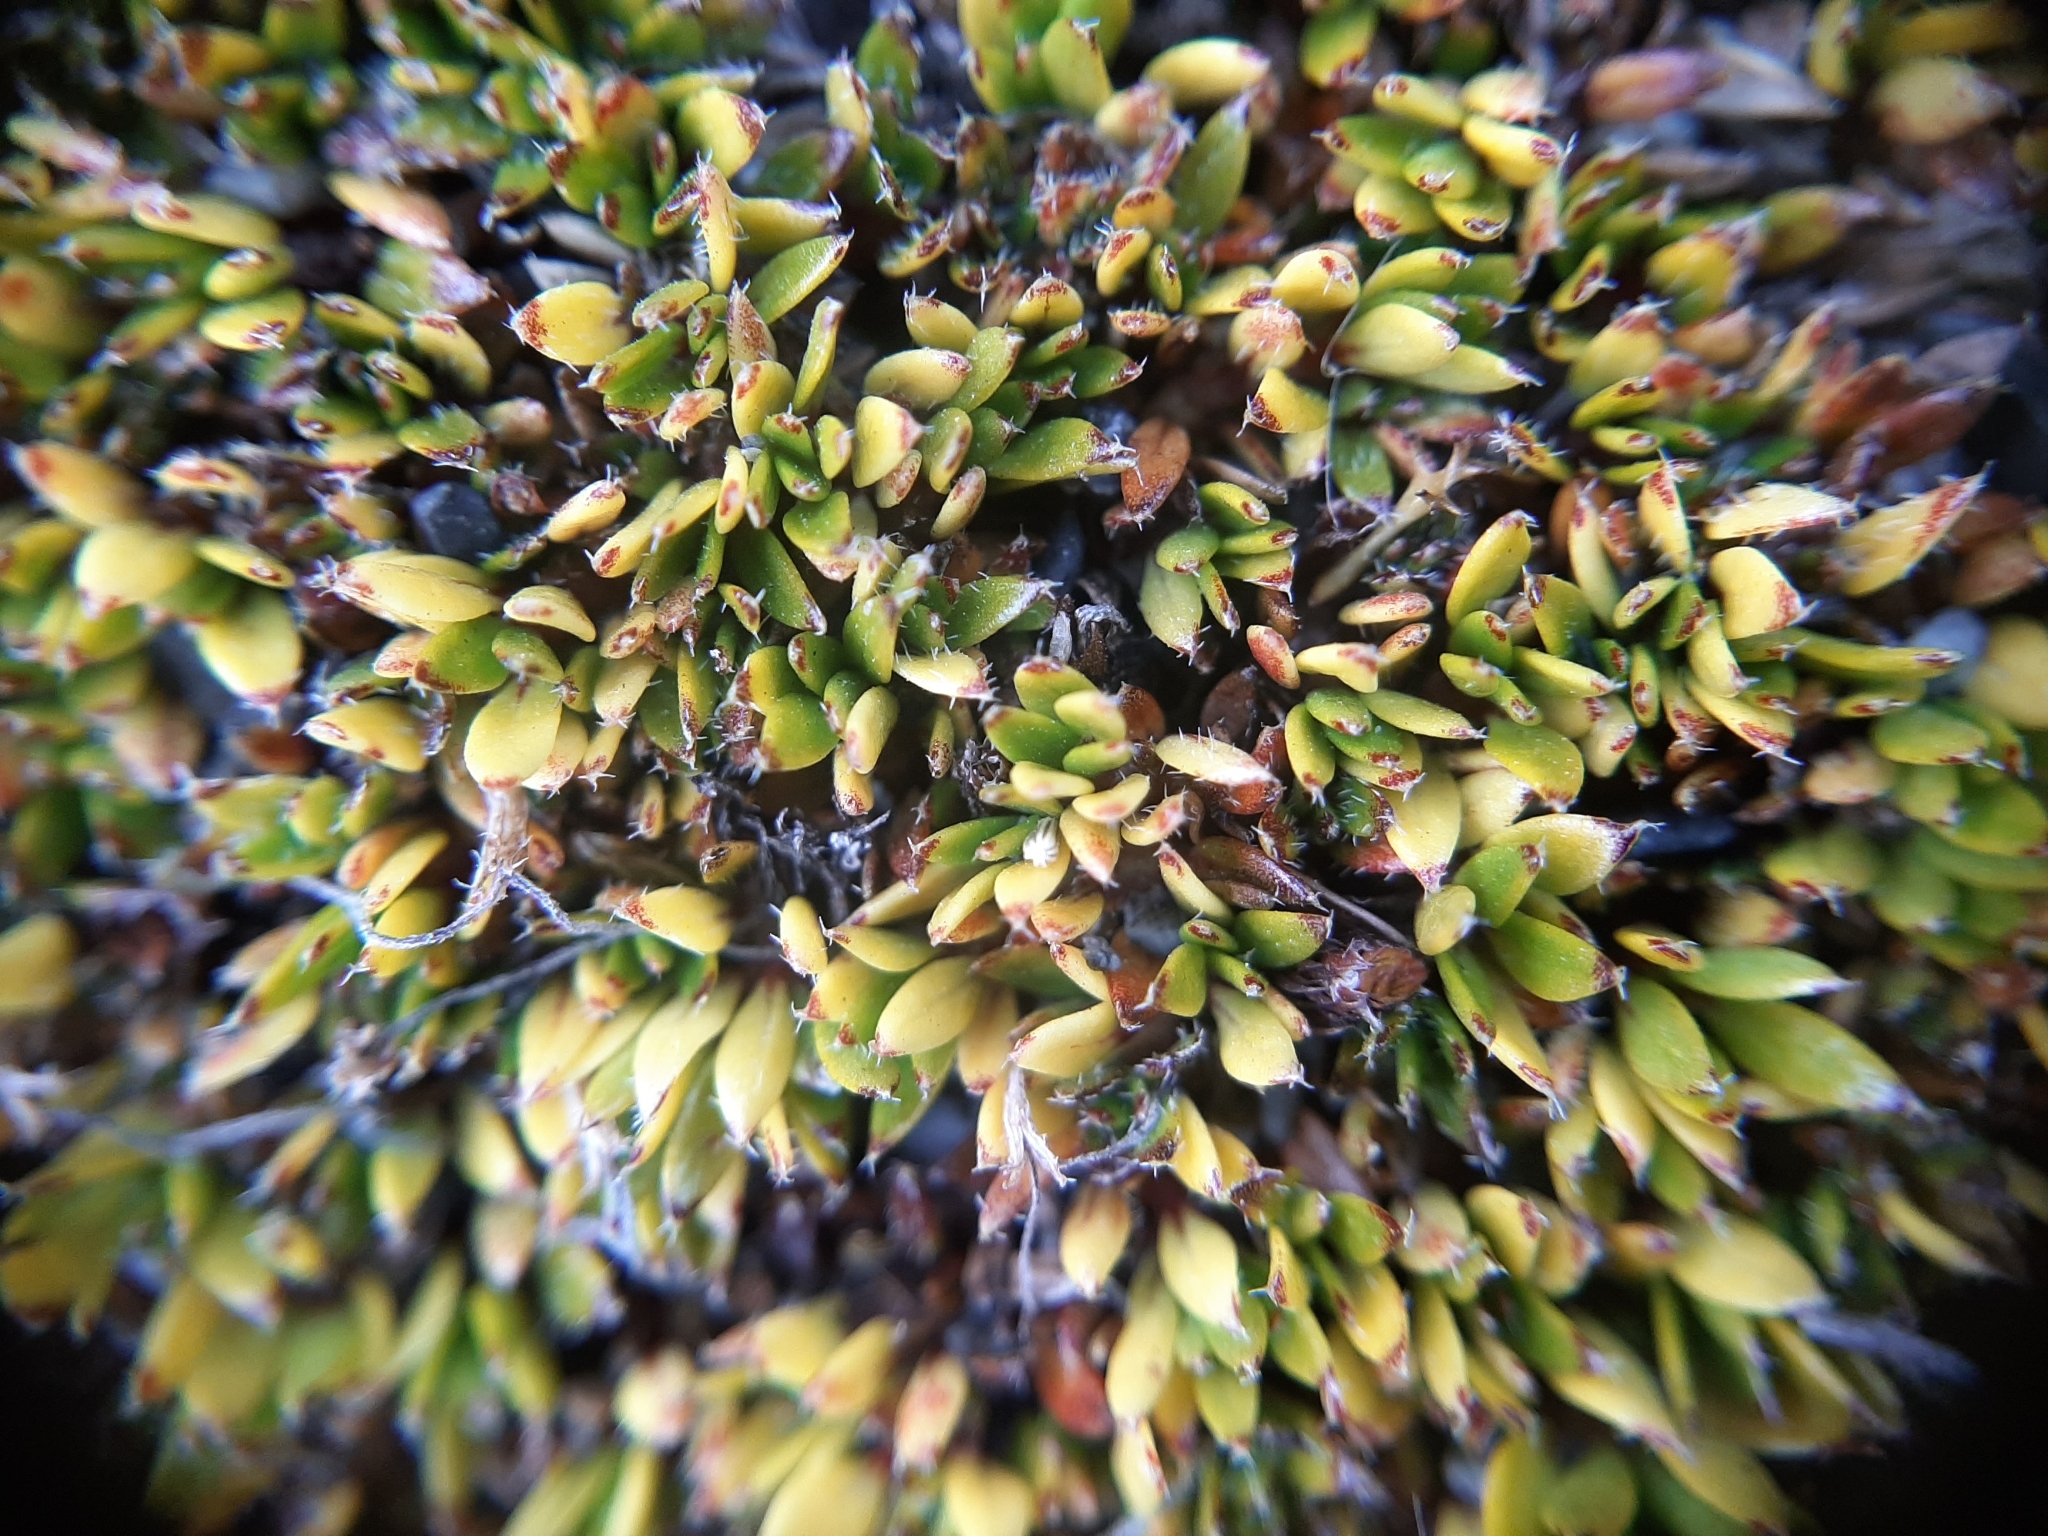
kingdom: Plantae
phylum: Tracheophyta
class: Magnoliopsida
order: Gentianales
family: Rubiaceae
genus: Coprosma
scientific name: Coprosma atropurpurea
